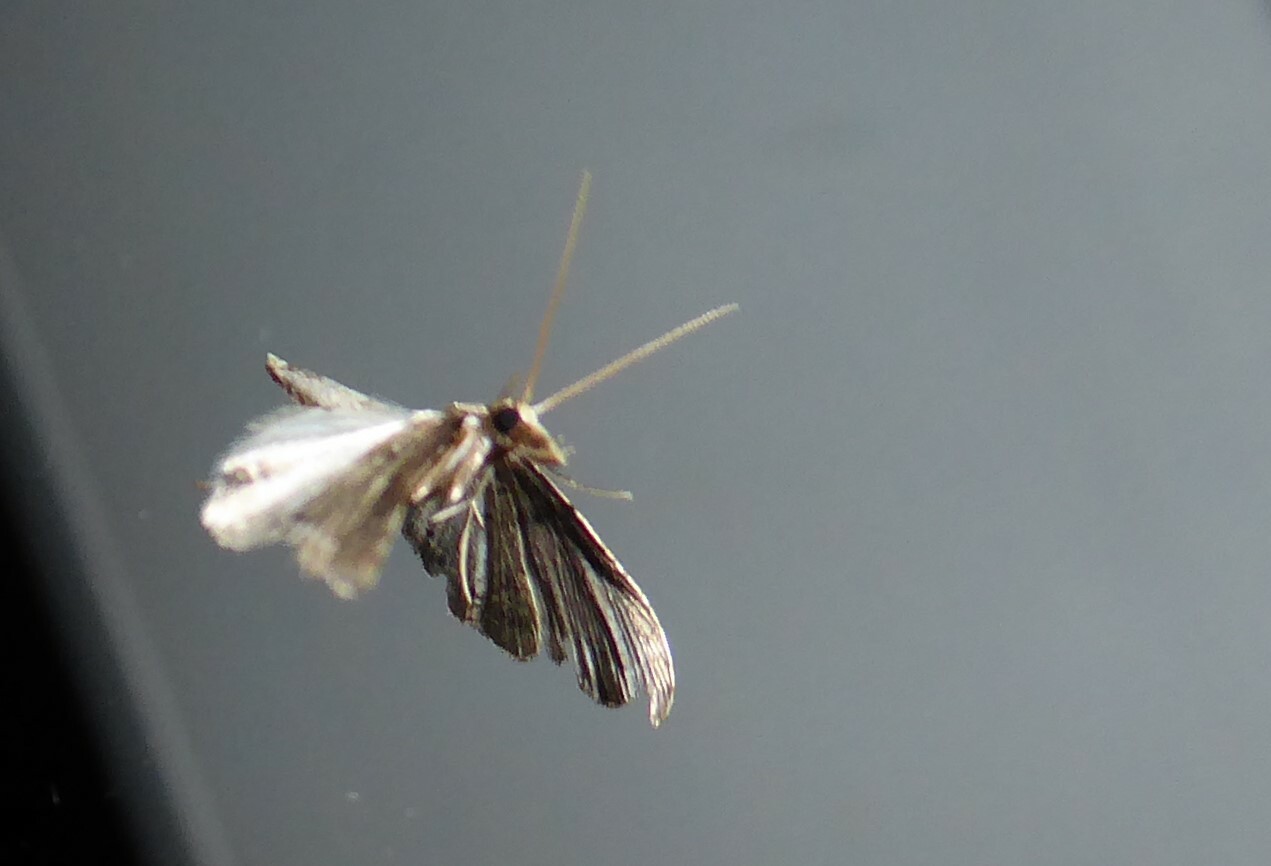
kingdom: Animalia
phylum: Arthropoda
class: Insecta
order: Lepidoptera
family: Crambidae
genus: Diplopseustis
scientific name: Diplopseustis perieresalis
